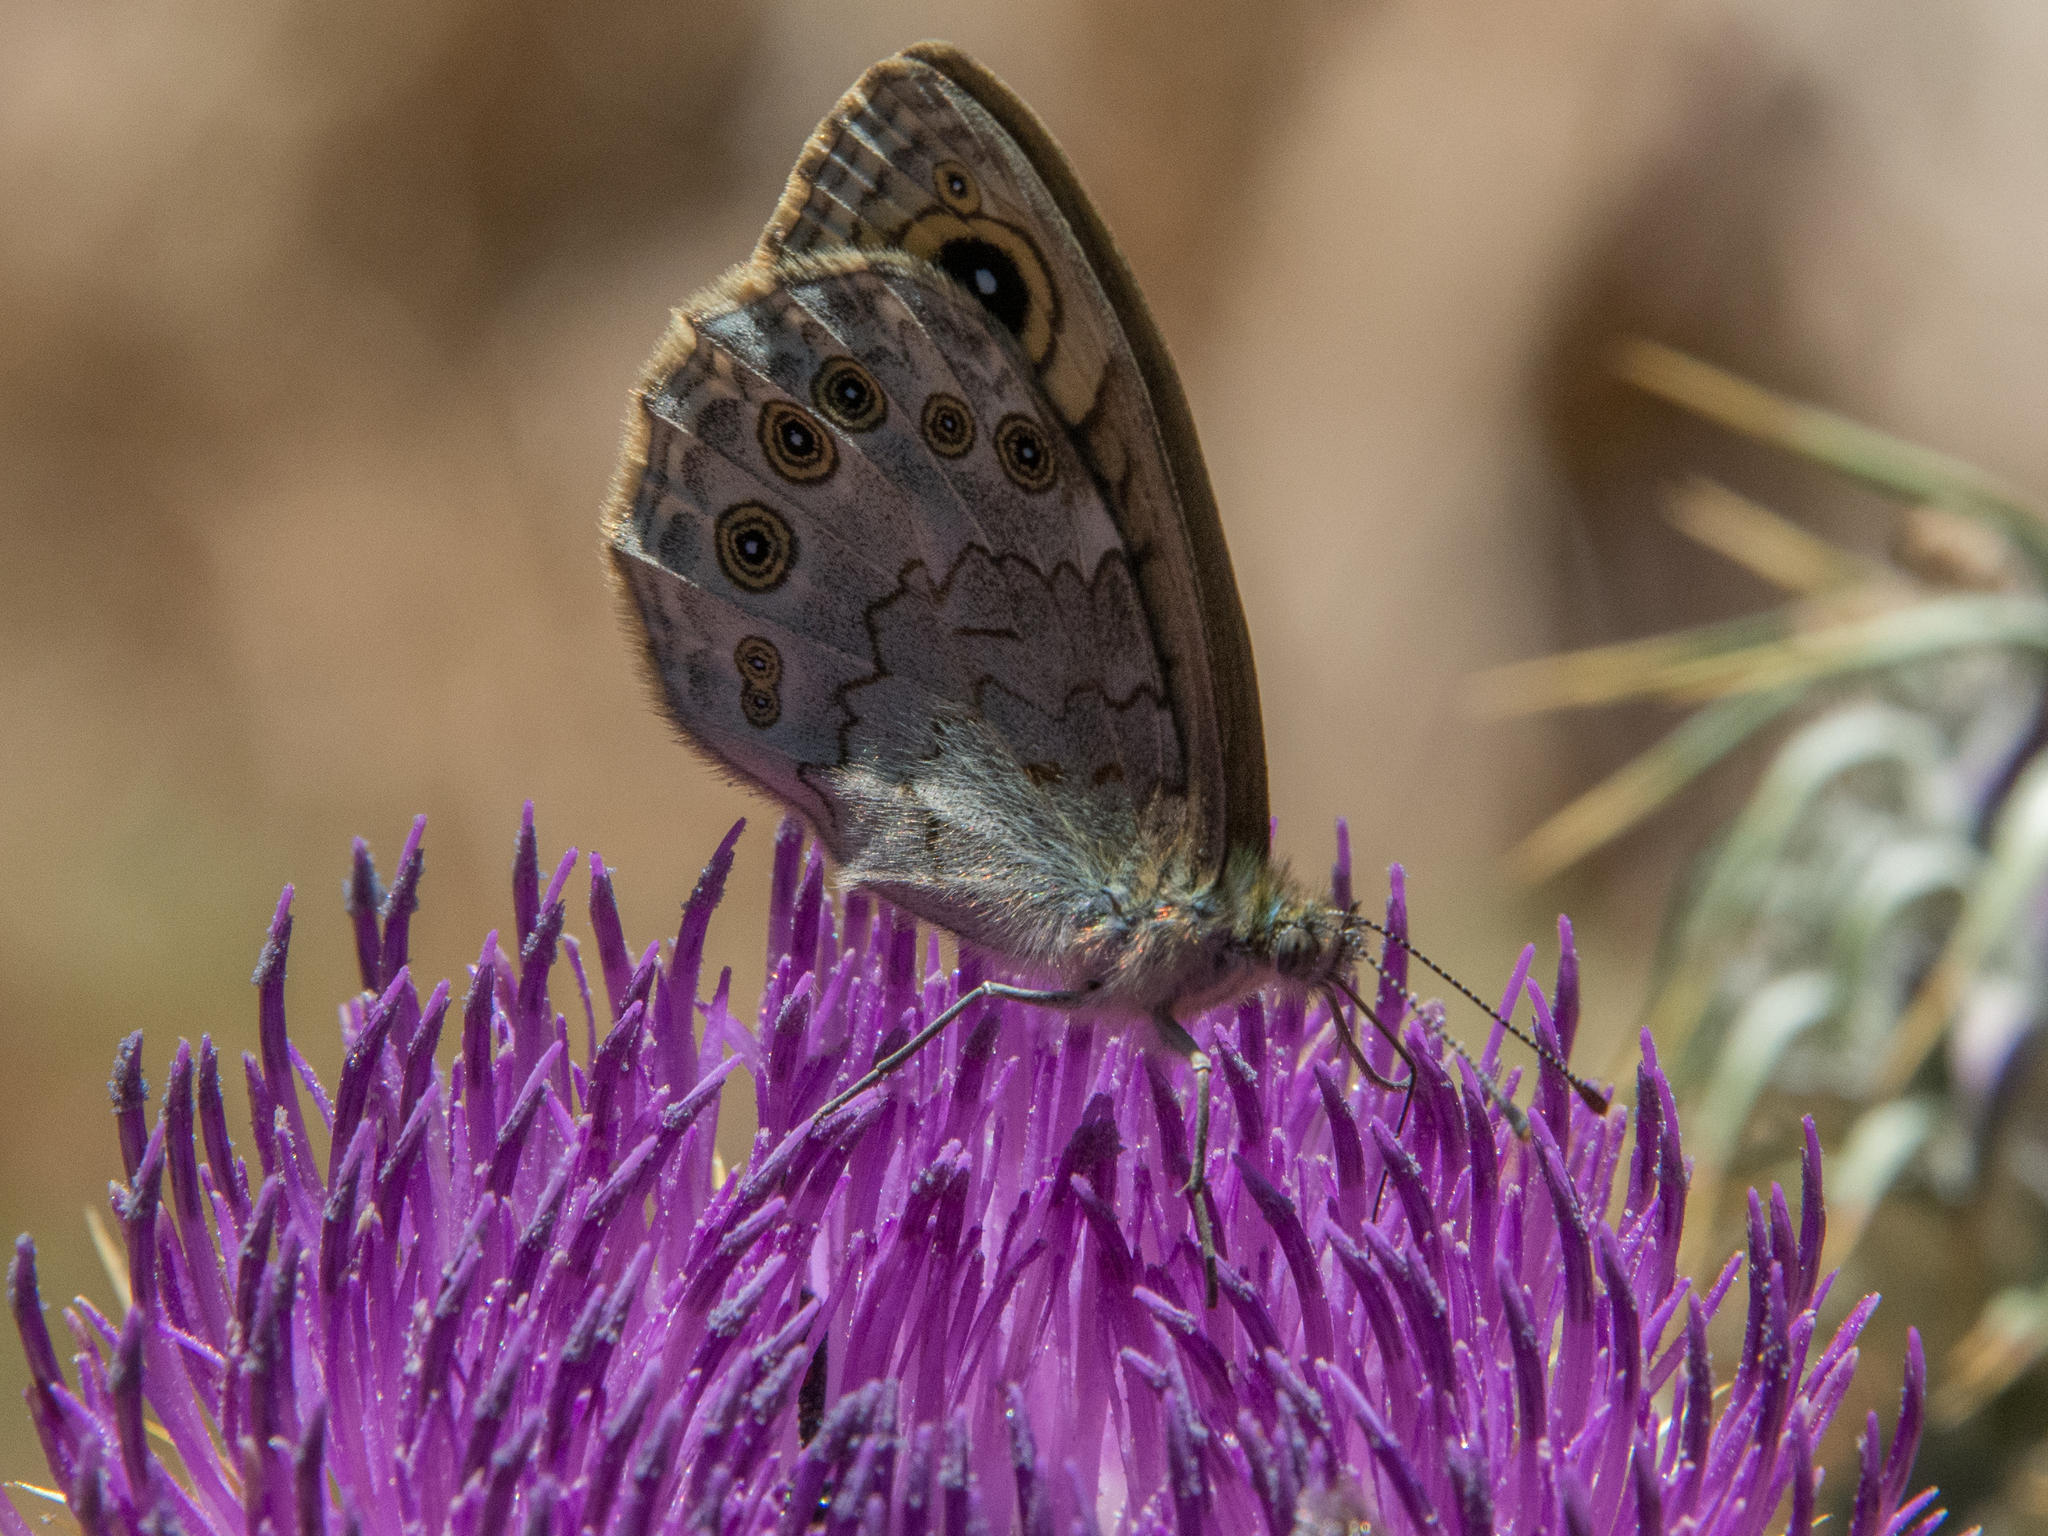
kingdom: Animalia
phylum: Arthropoda
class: Insecta
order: Lepidoptera
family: Nymphalidae
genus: Pararge
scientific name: Pararge Lasiommata maera
